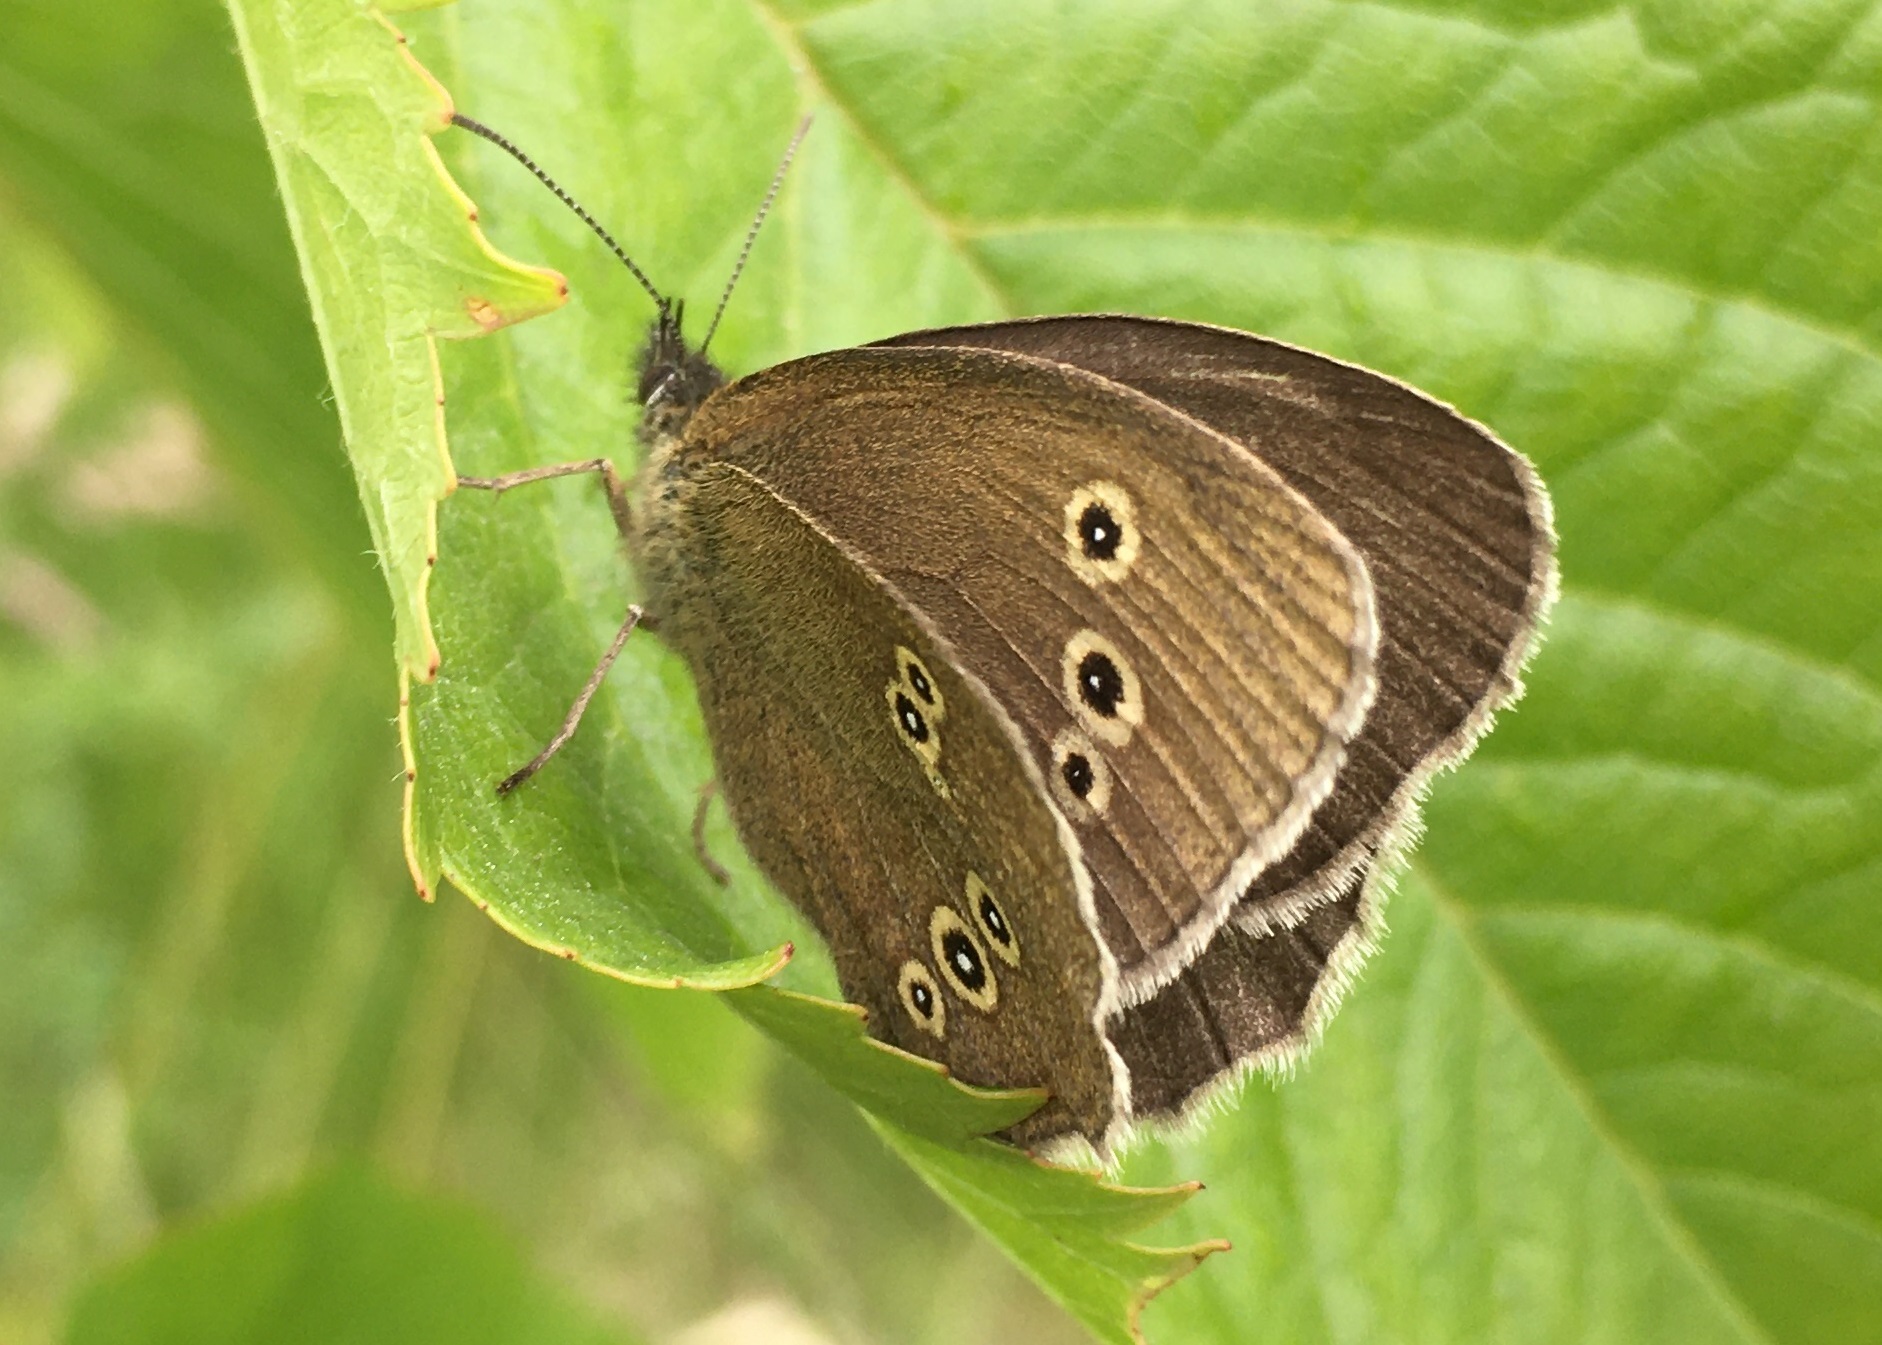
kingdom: Animalia
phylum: Arthropoda
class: Insecta
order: Lepidoptera
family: Nymphalidae
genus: Aphantopus
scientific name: Aphantopus hyperantus
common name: Ringlet
